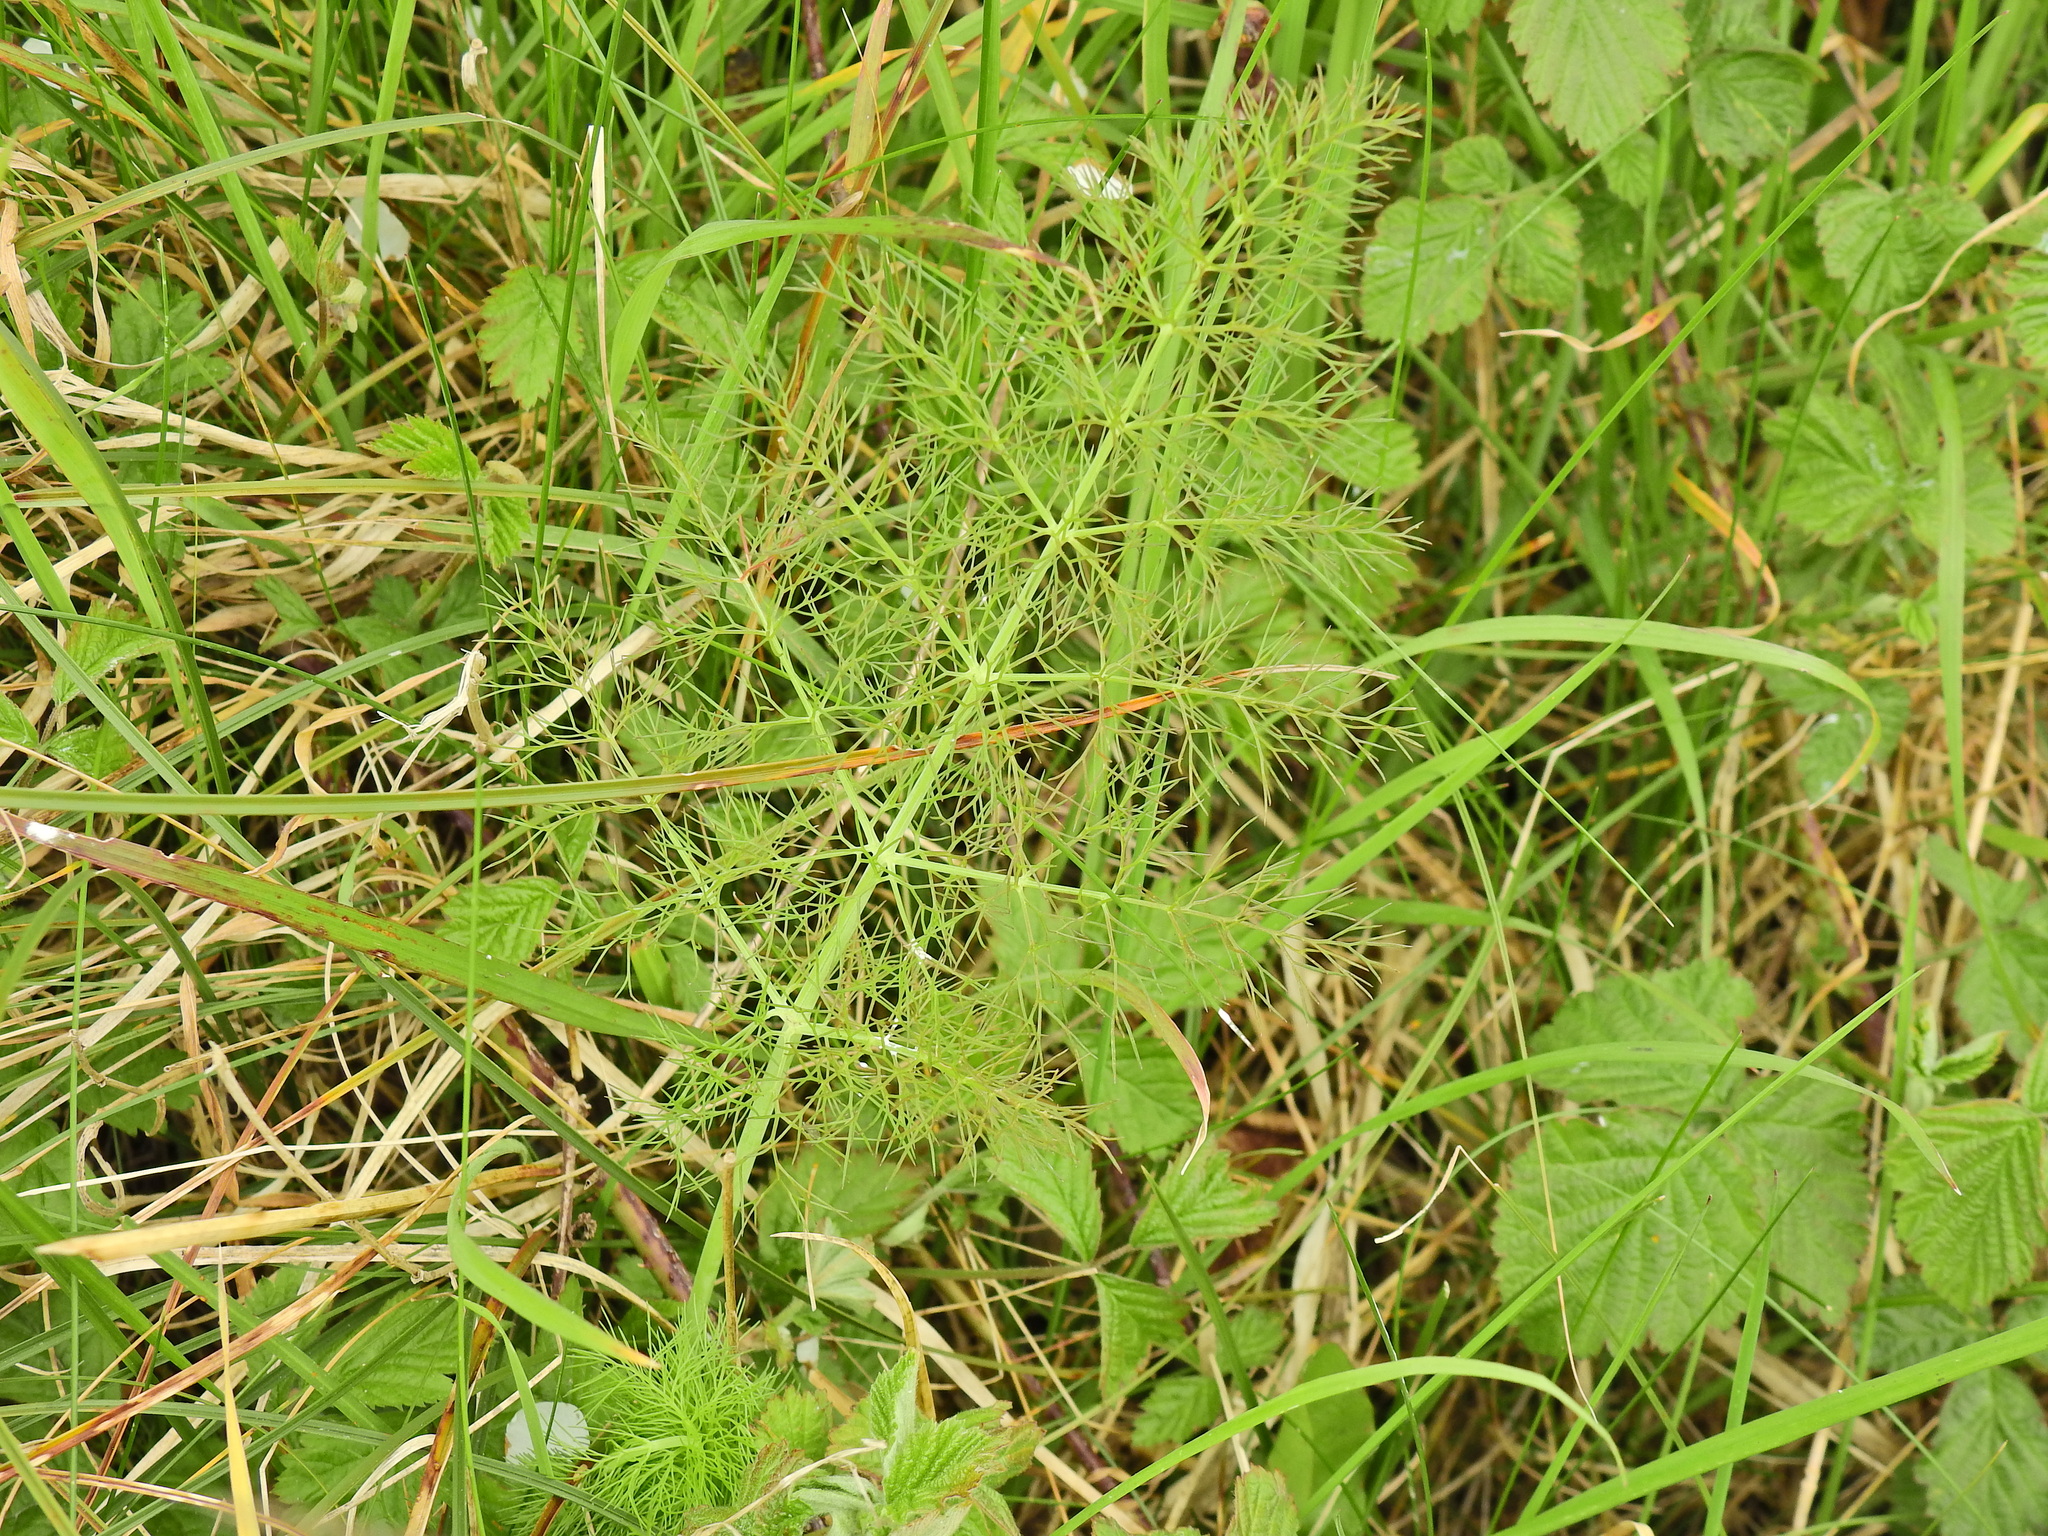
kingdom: Plantae
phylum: Tracheophyta
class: Magnoliopsida
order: Apiales
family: Apiaceae
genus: Foeniculum
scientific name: Foeniculum vulgare
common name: Fennel
